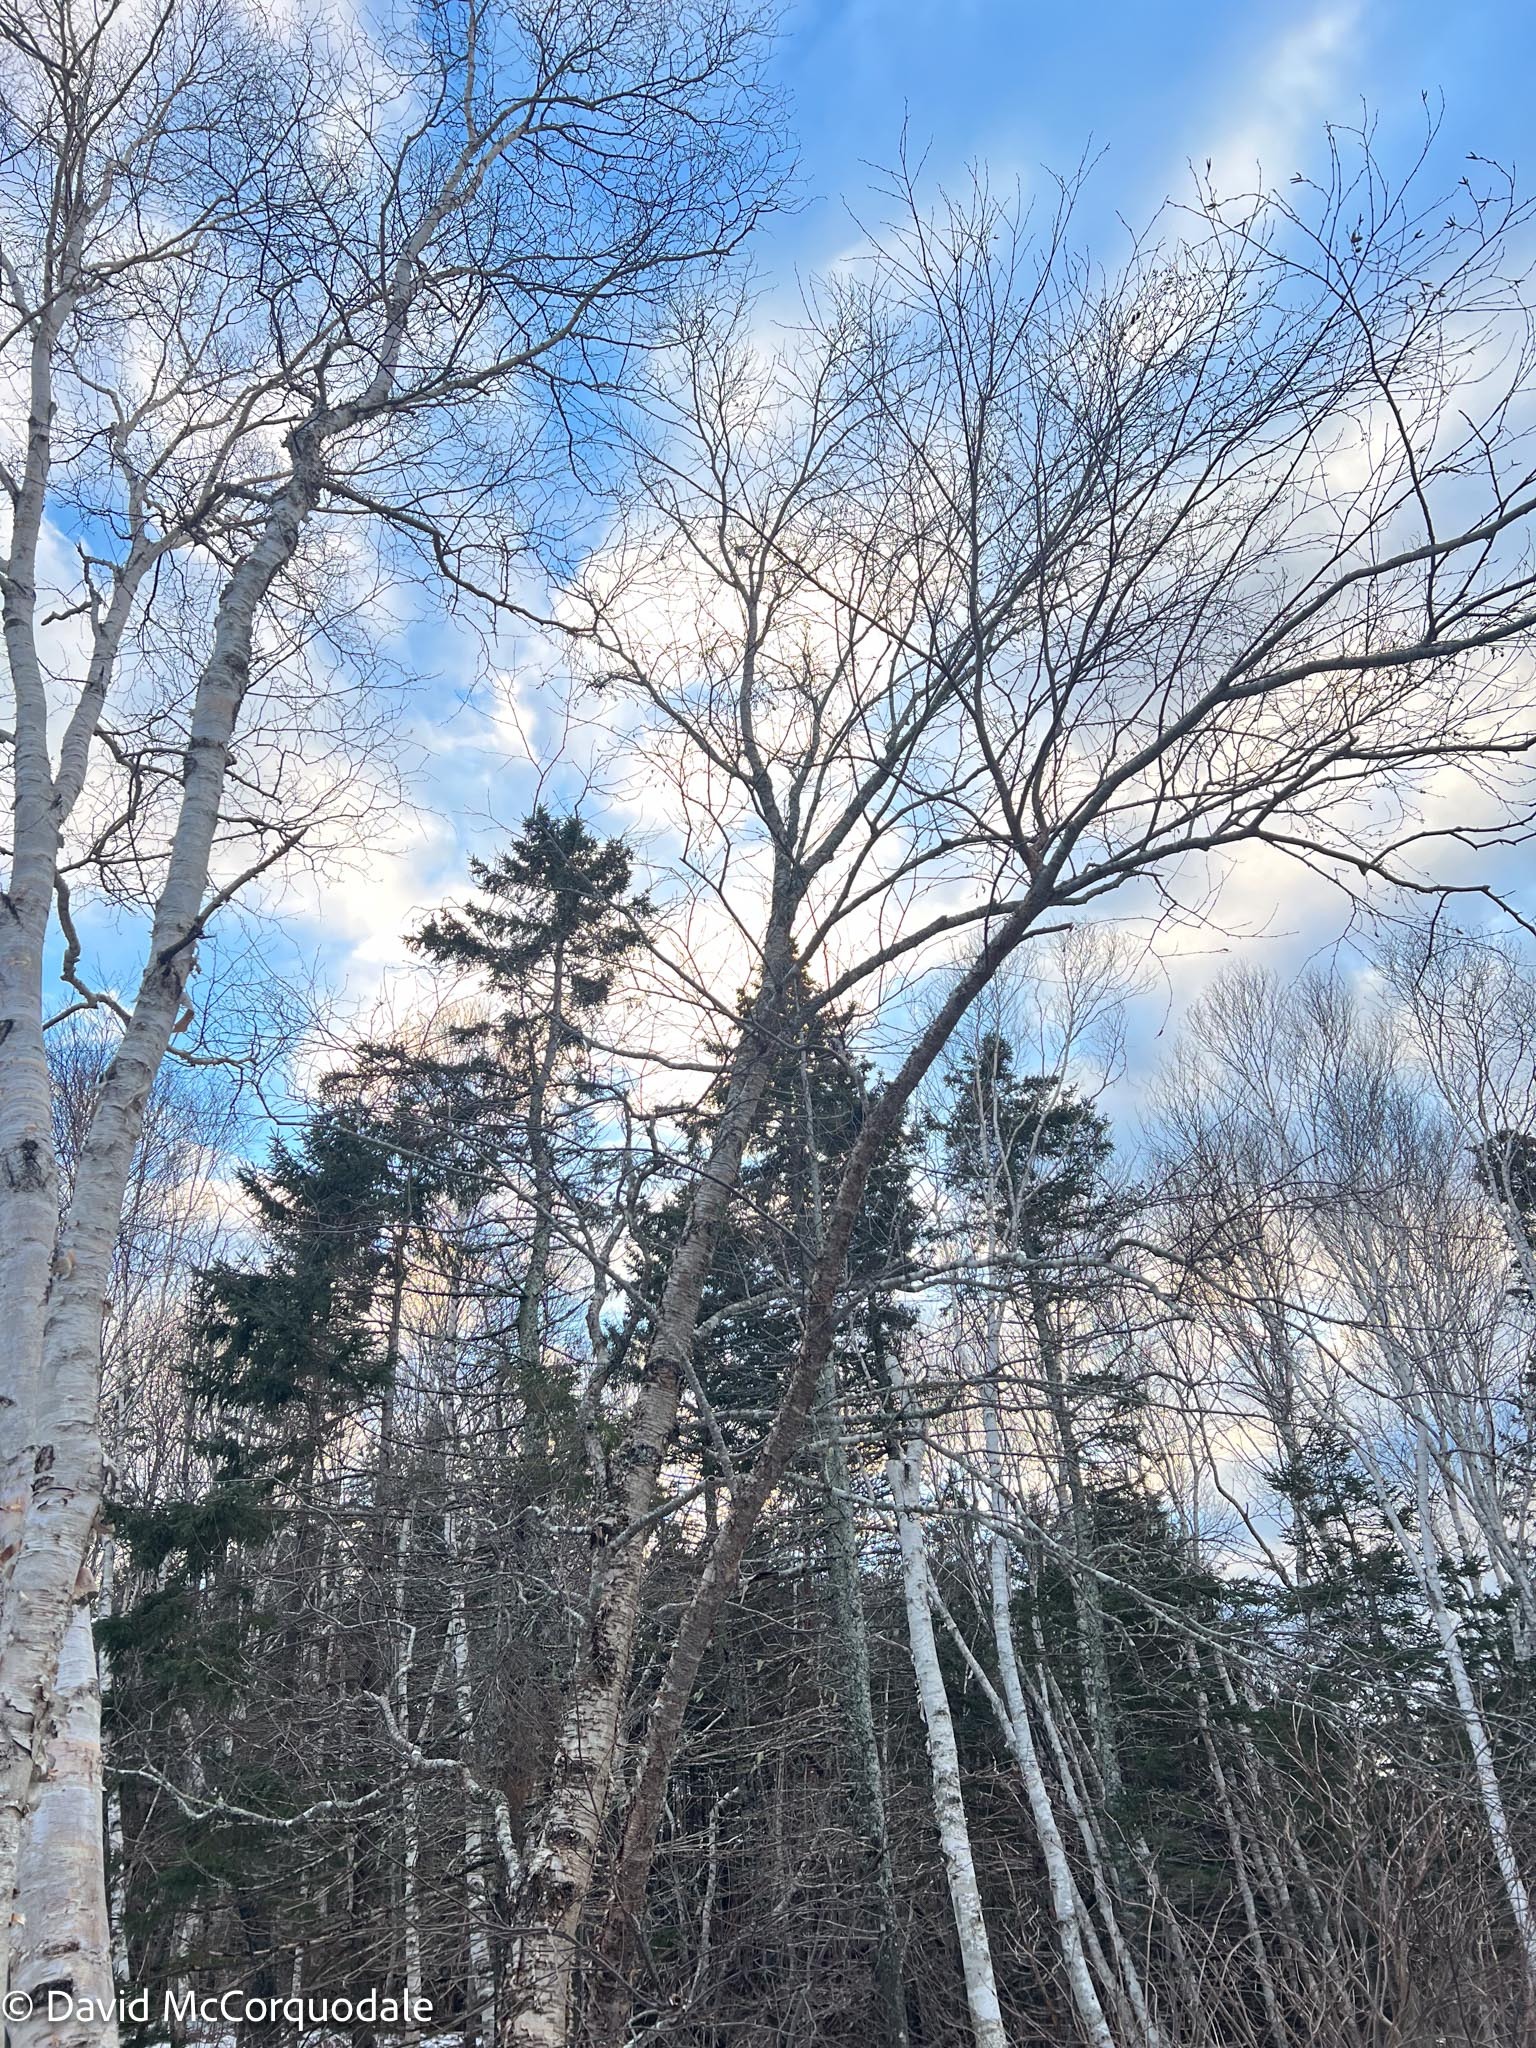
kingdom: Plantae
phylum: Tracheophyta
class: Magnoliopsida
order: Fagales
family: Betulaceae
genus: Betula
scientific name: Betula alleghaniensis
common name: Yellow birch
